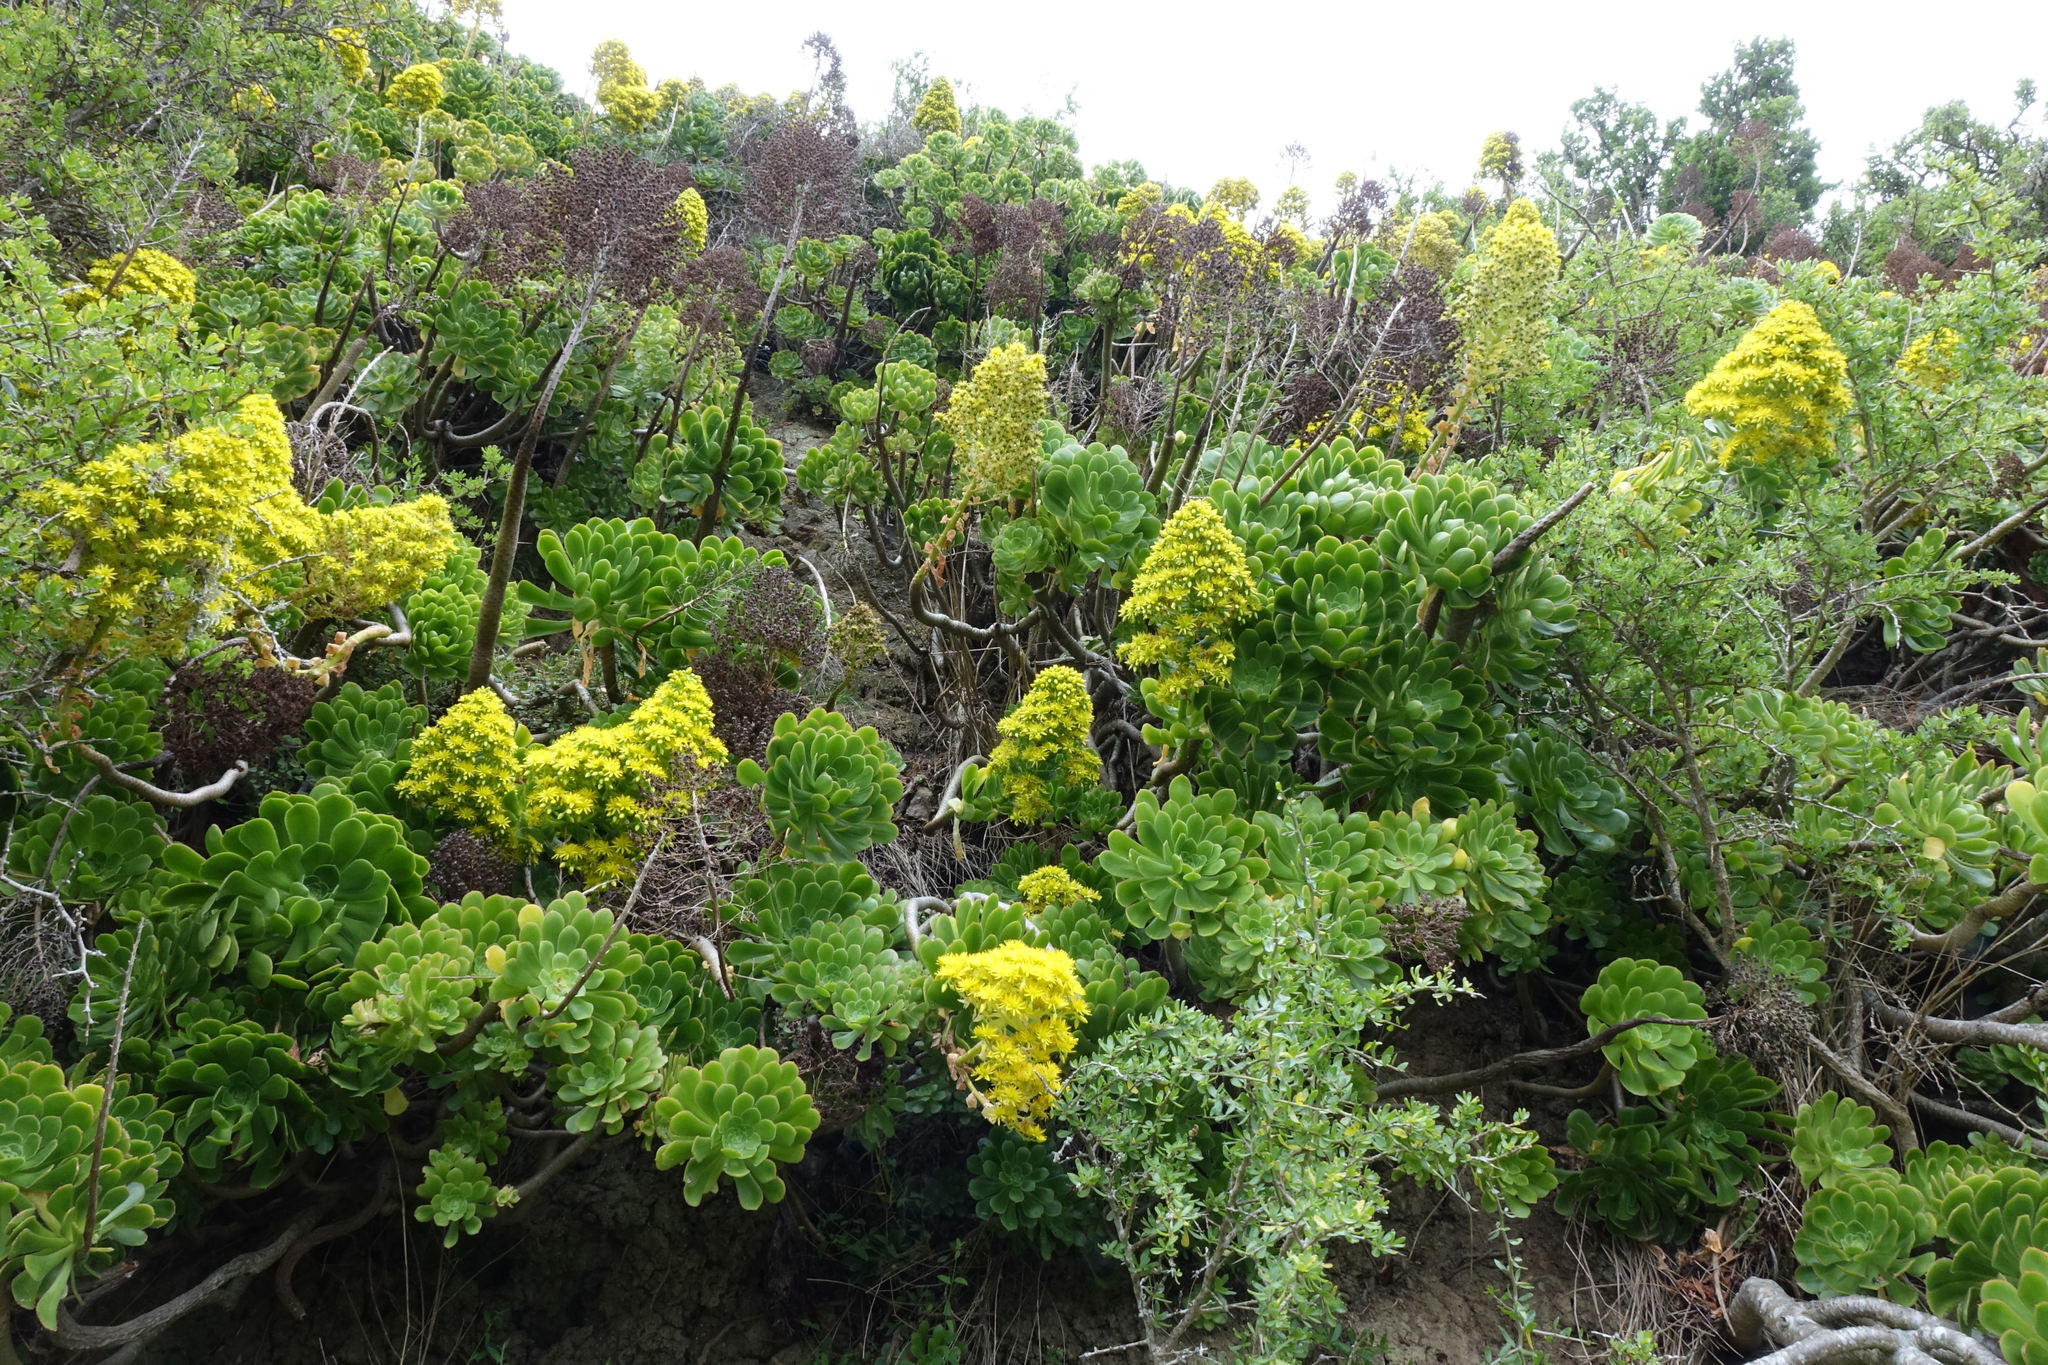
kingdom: Plantae
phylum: Tracheophyta
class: Magnoliopsida
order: Saxifragales
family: Crassulaceae
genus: Aeonium
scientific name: Aeonium arboreum
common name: Tree aeonium
